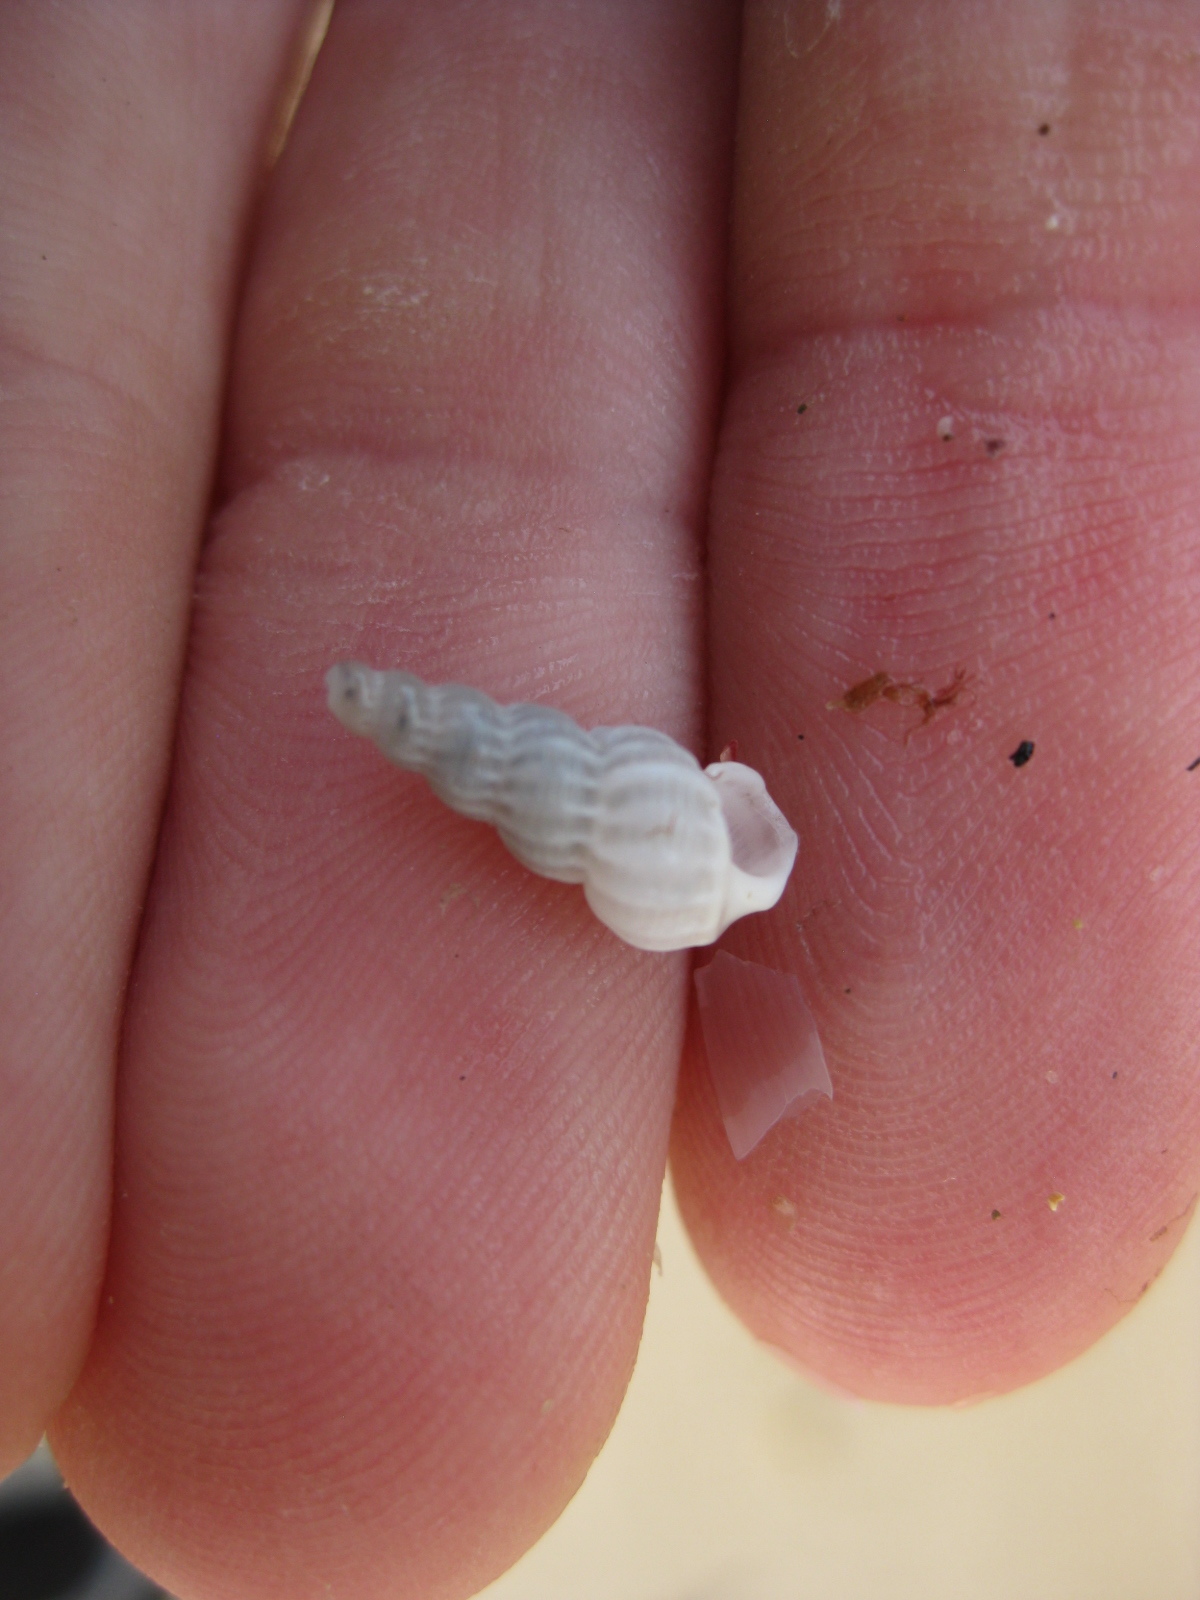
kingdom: Animalia
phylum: Mollusca
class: Gastropoda
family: Epitoniidae
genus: Cirsotrema
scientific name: Cirsotrema zelebori
